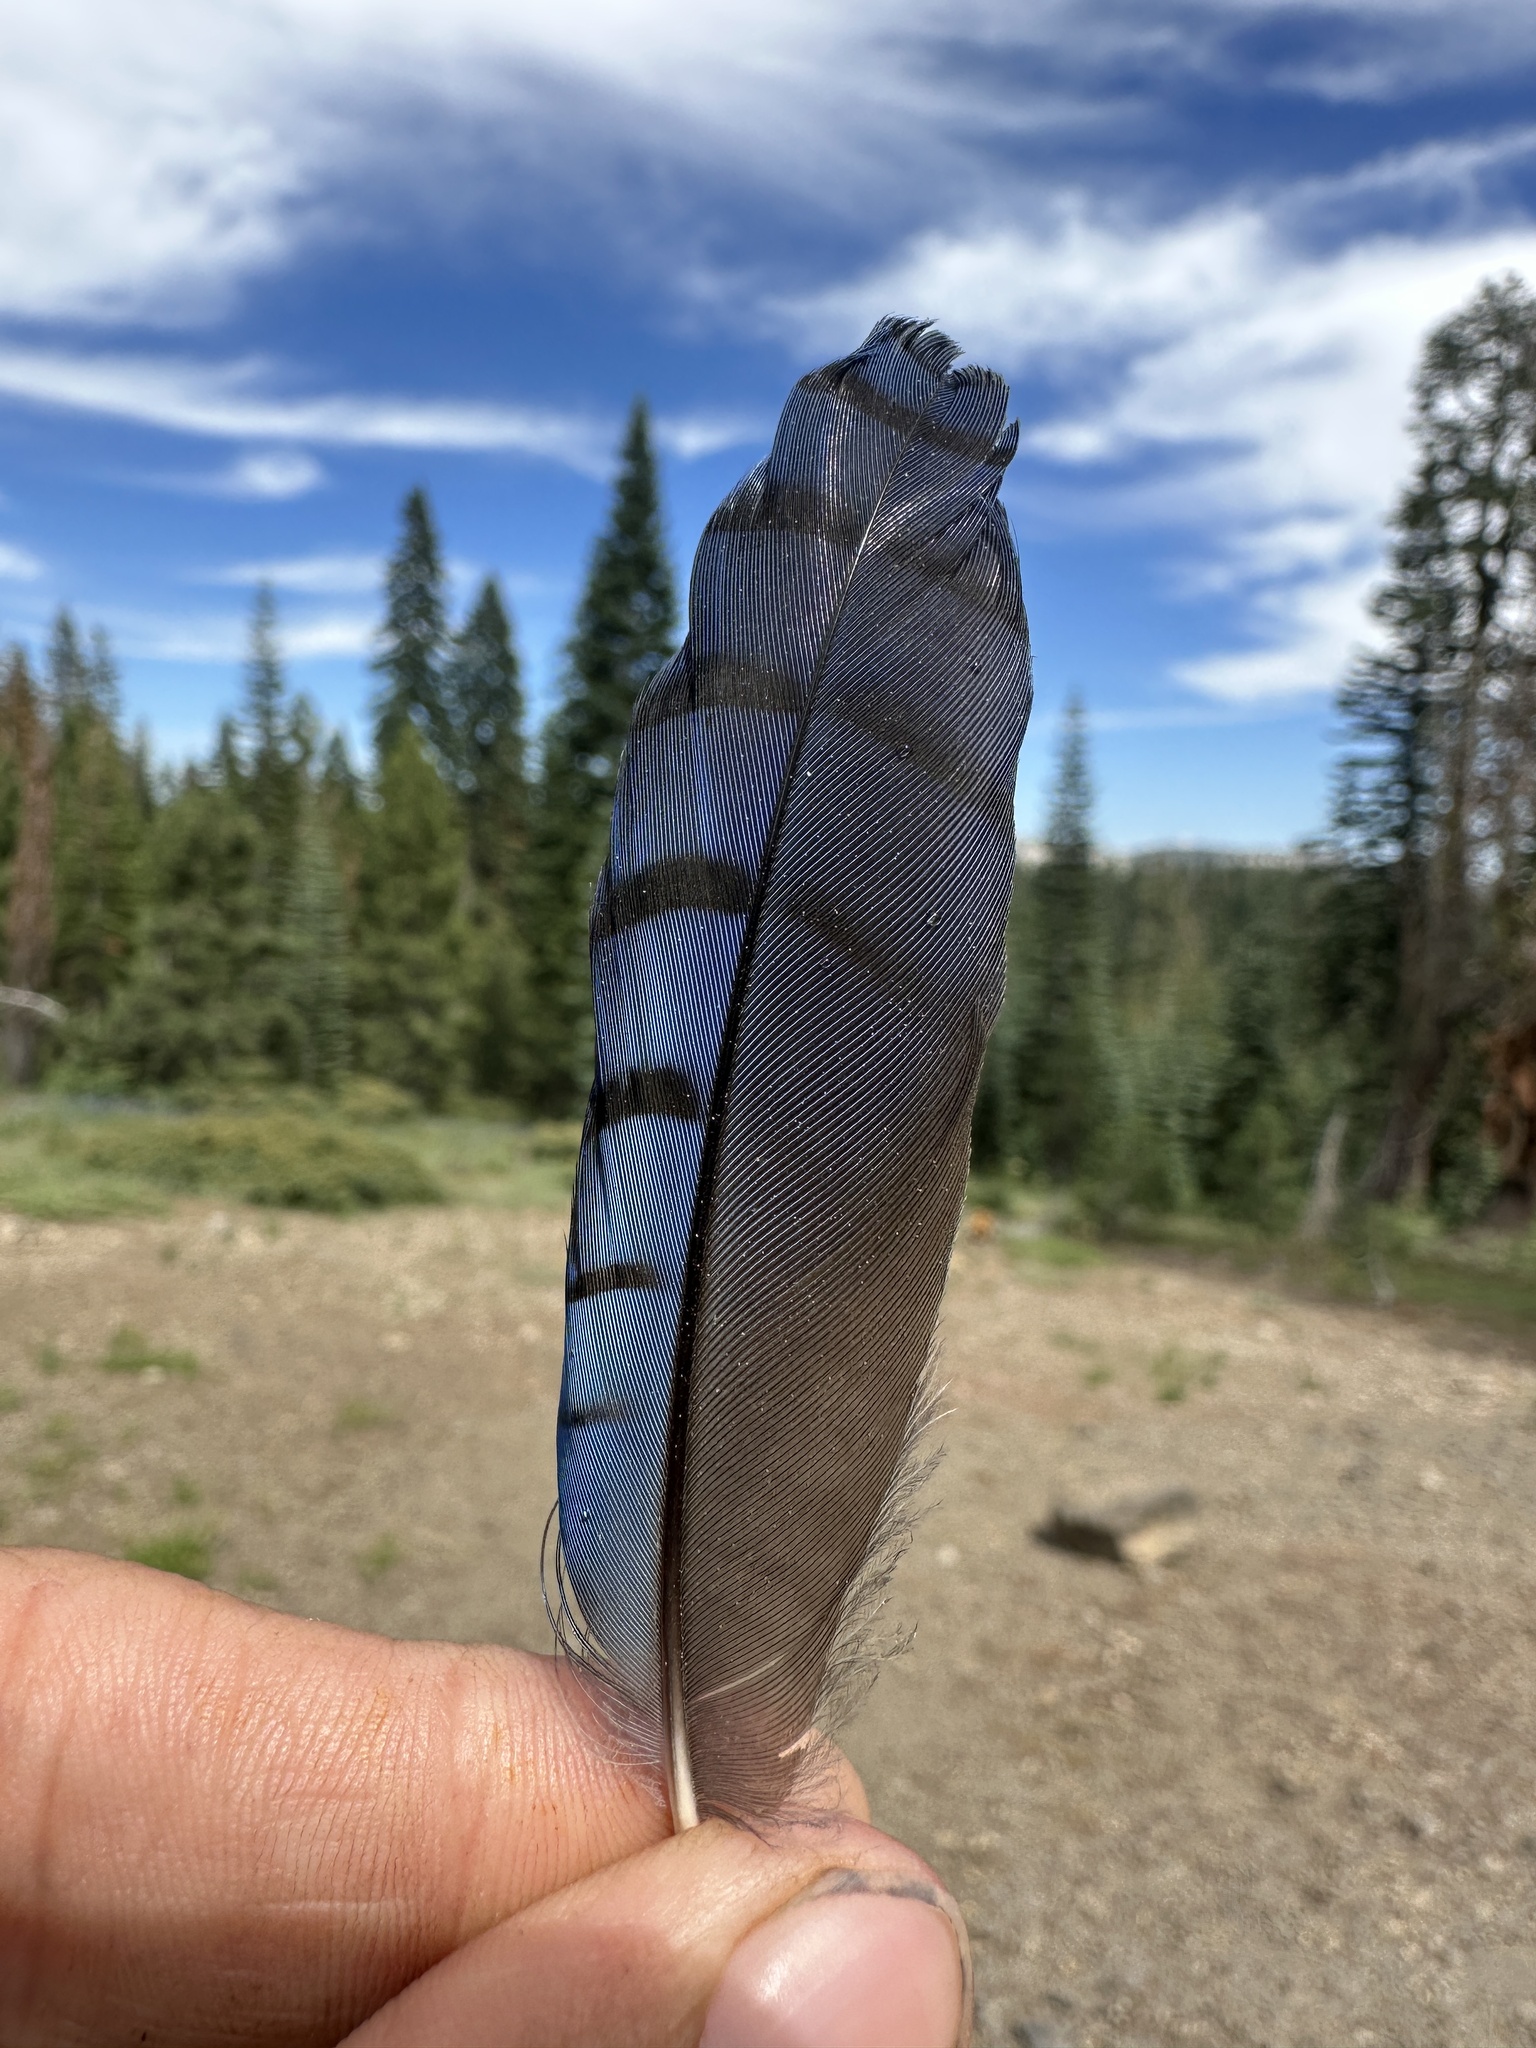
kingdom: Animalia
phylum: Chordata
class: Aves
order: Passeriformes
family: Corvidae
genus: Cyanocitta
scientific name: Cyanocitta stelleri
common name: Steller's jay
